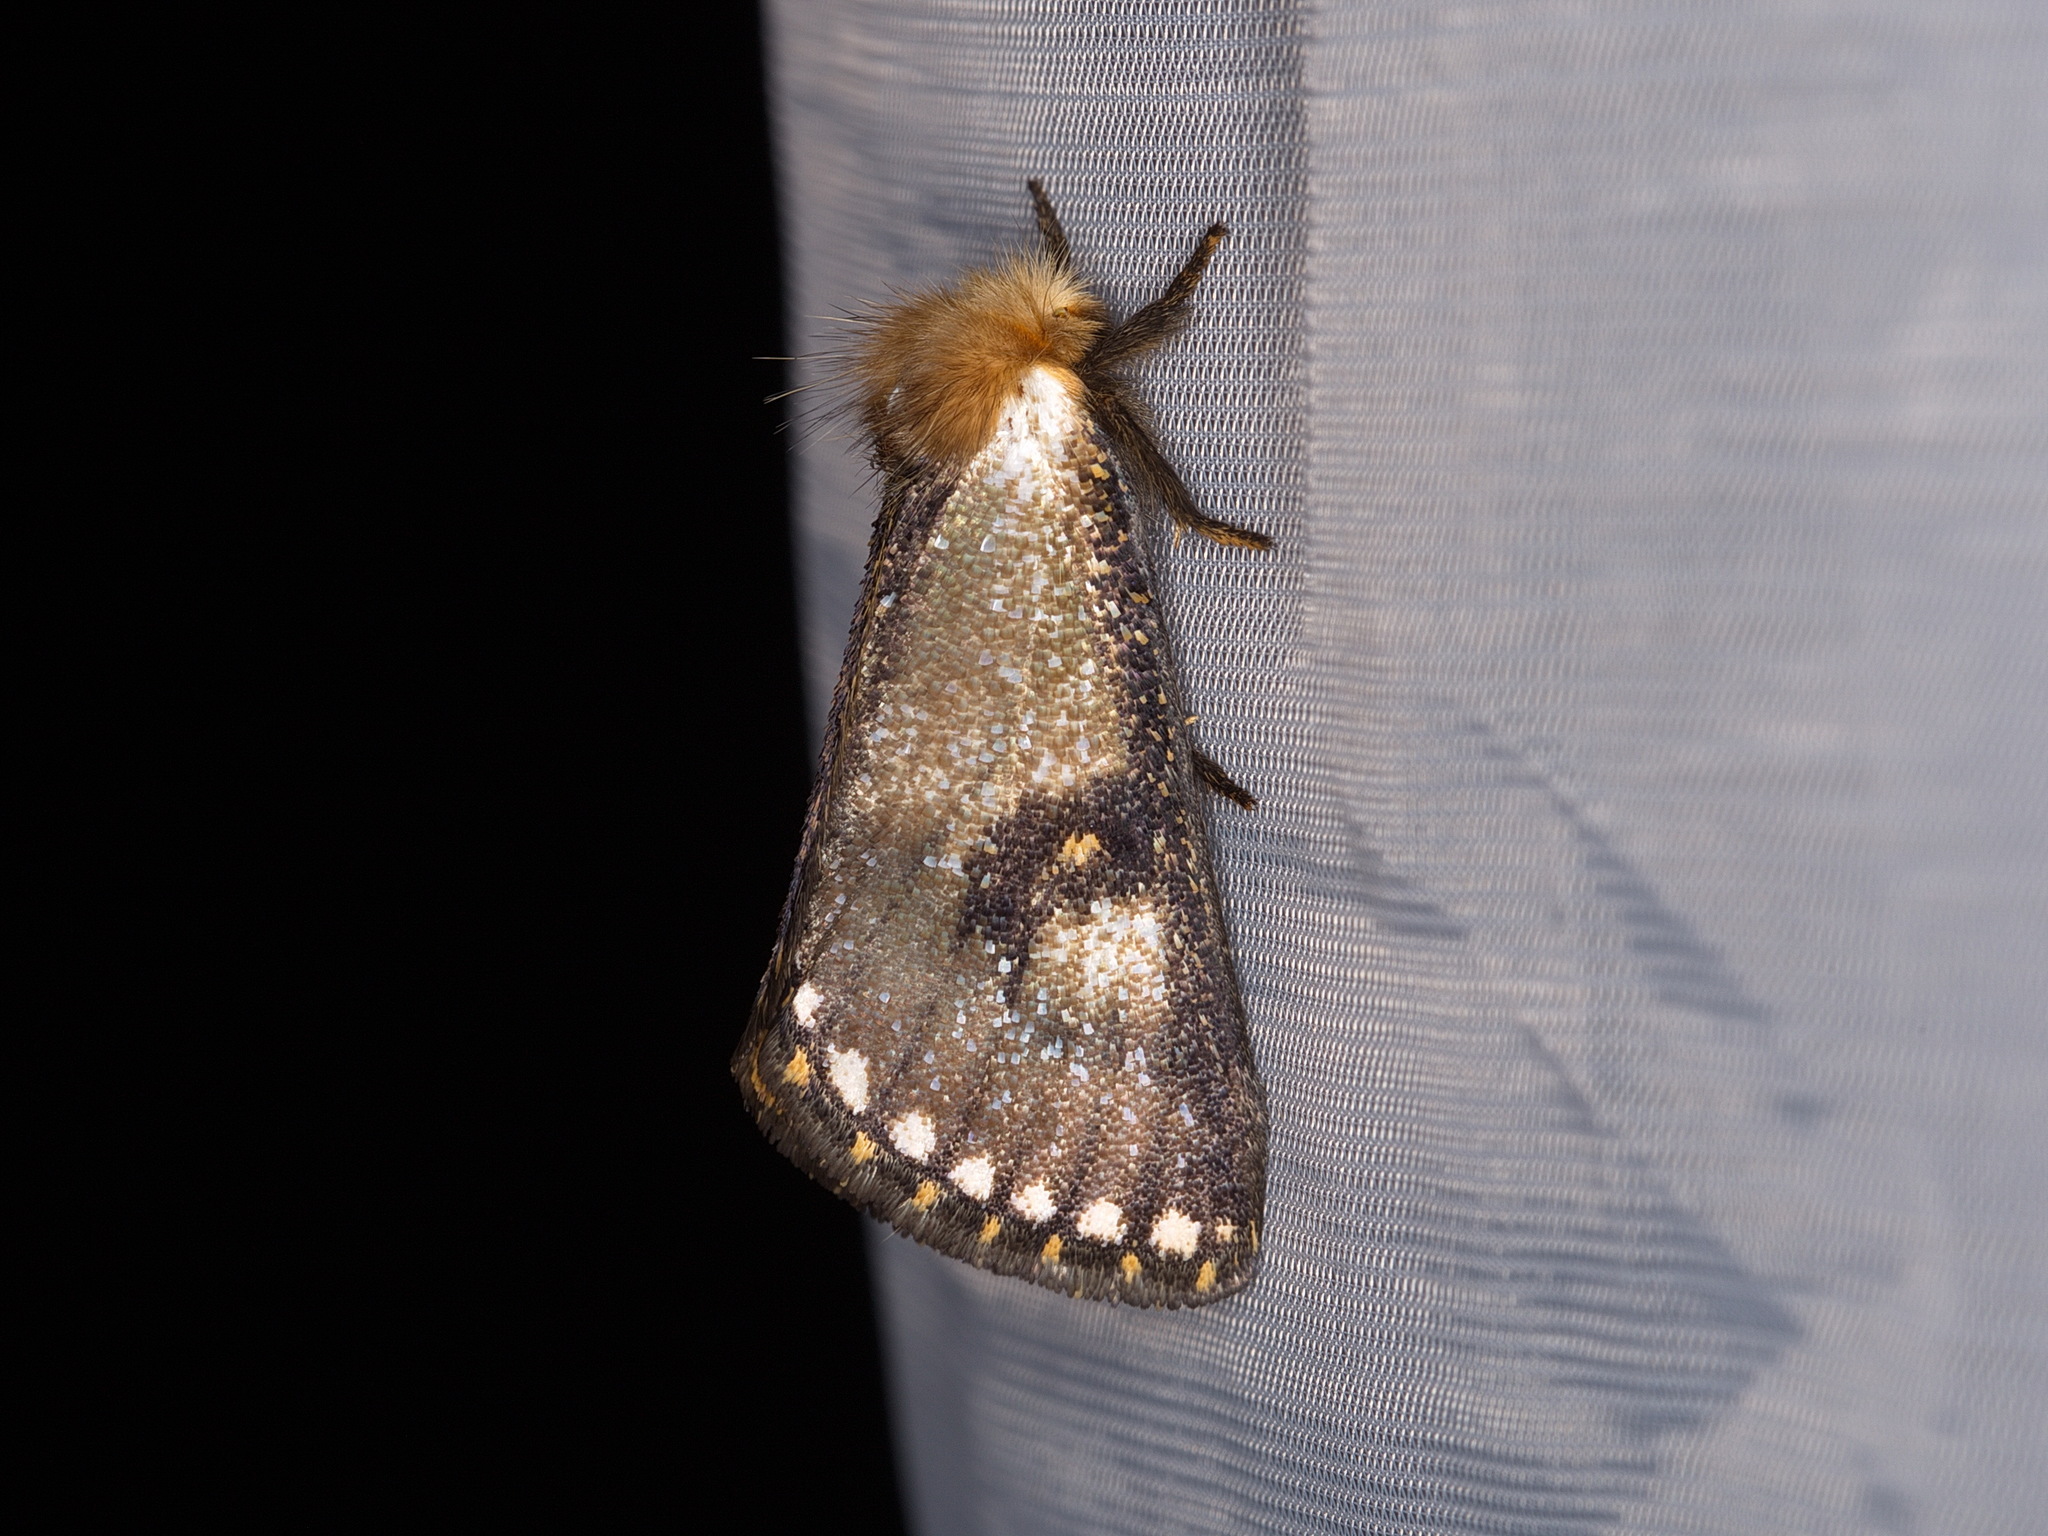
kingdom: Animalia
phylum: Arthropoda
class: Insecta
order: Lepidoptera
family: Notodontidae
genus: Epicoma
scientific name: Epicoma contristis
